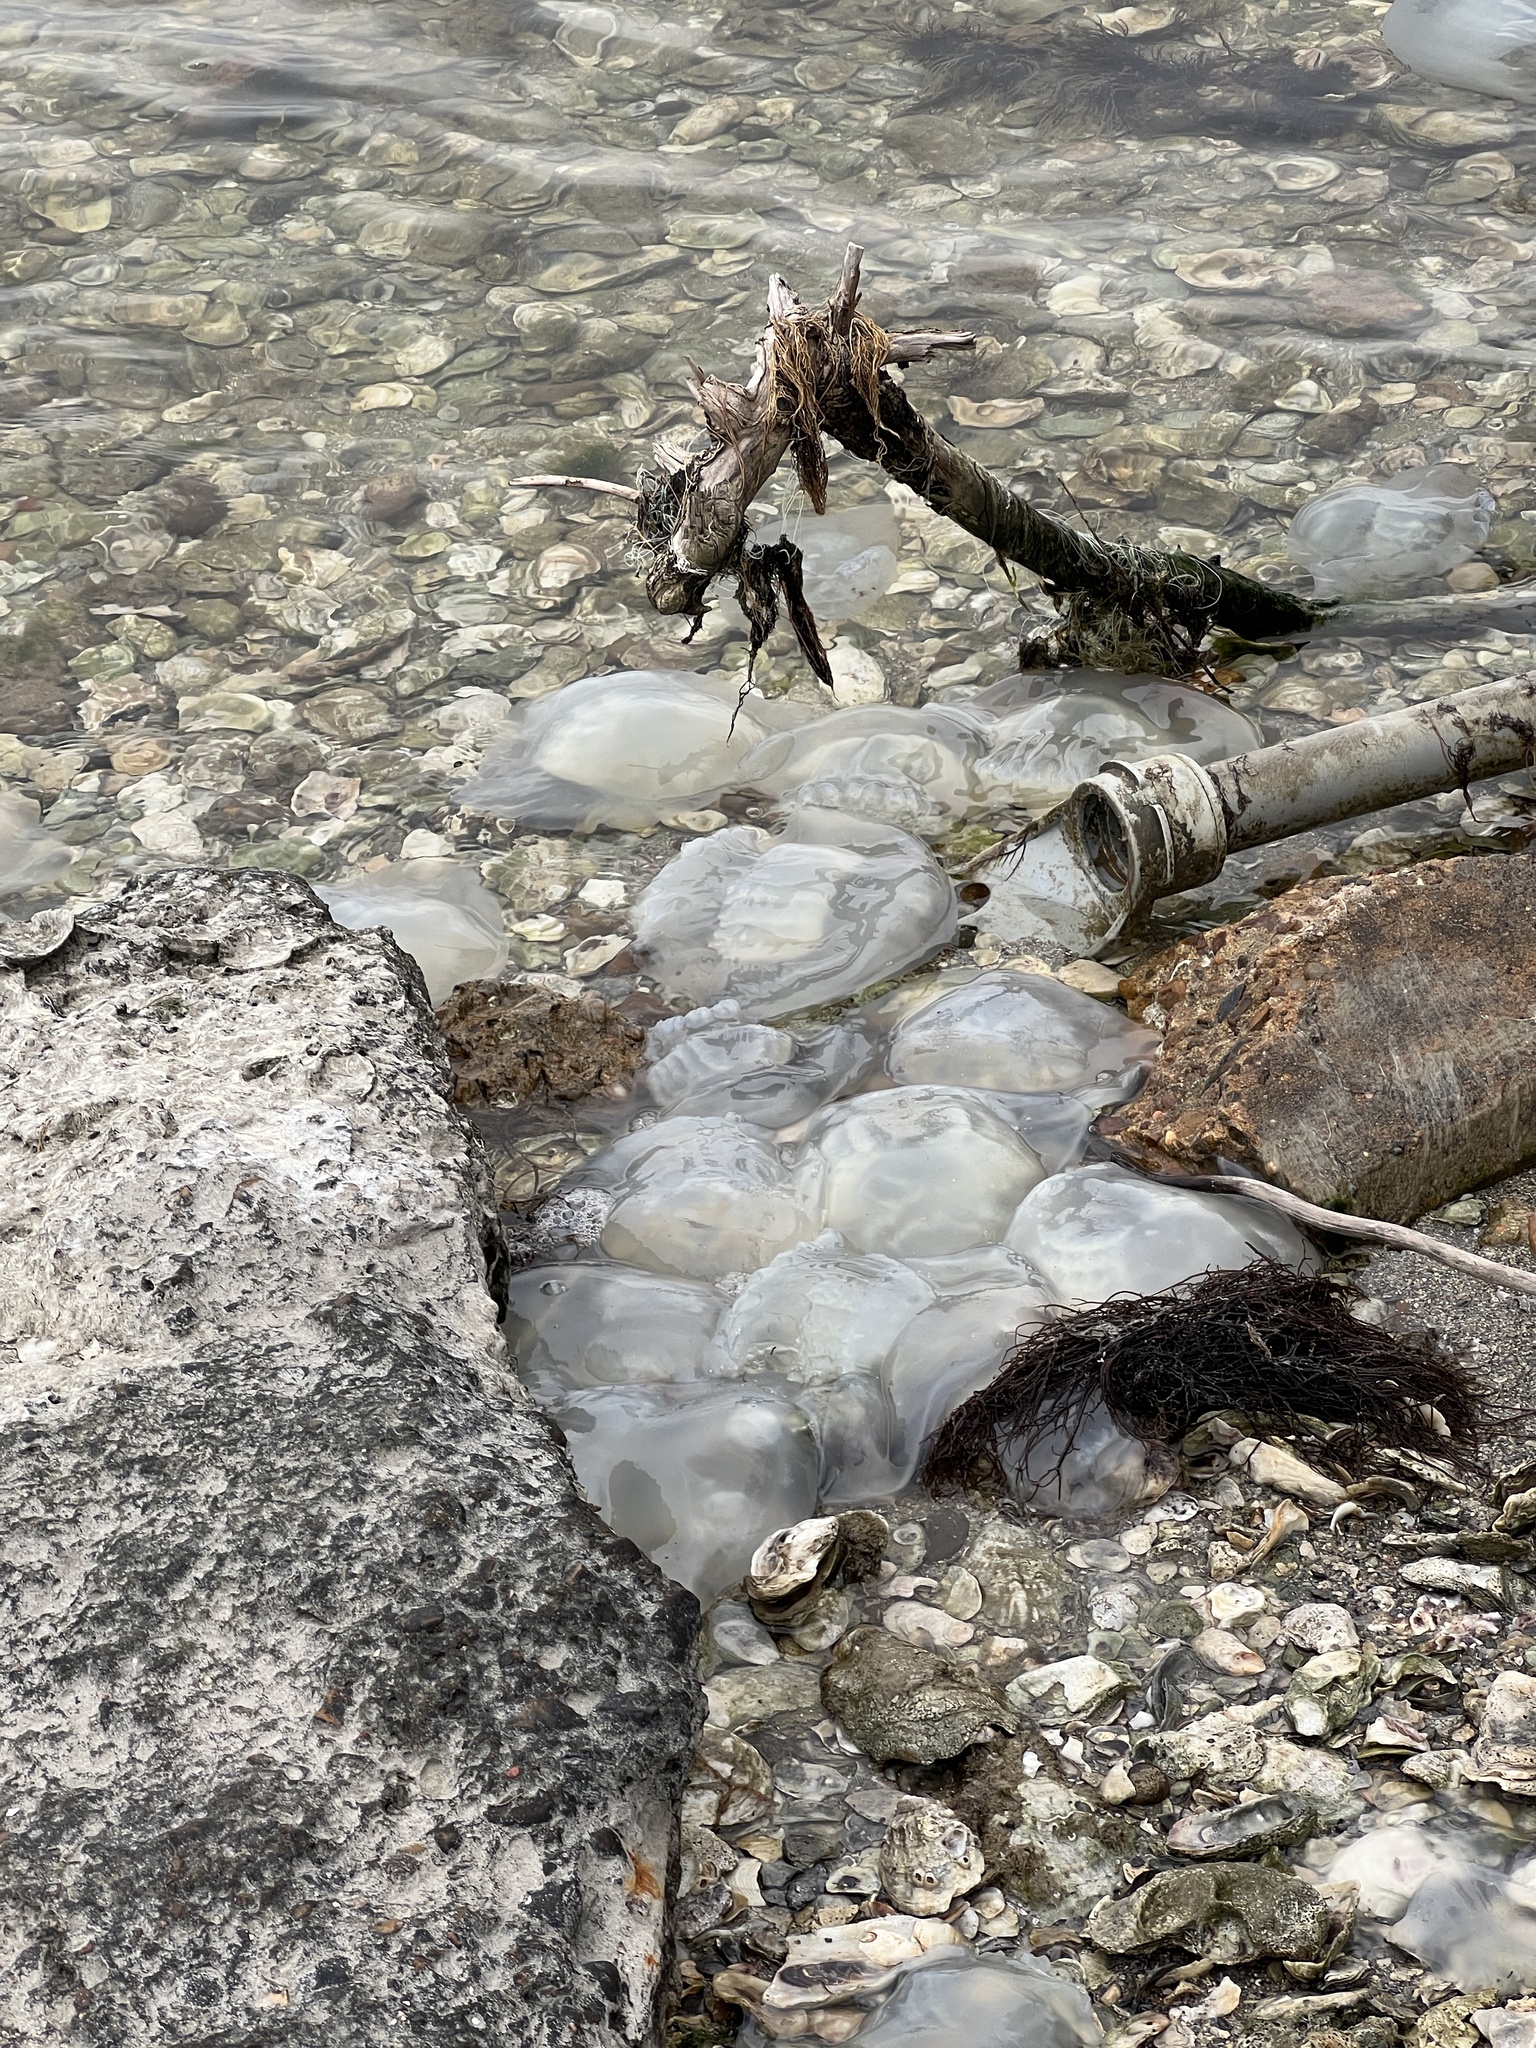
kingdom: Animalia
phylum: Cnidaria
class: Scyphozoa
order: Rhizostomeae
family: Stomolophidae
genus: Stomolophus
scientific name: Stomolophus meleagris
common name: Cabbagehead
